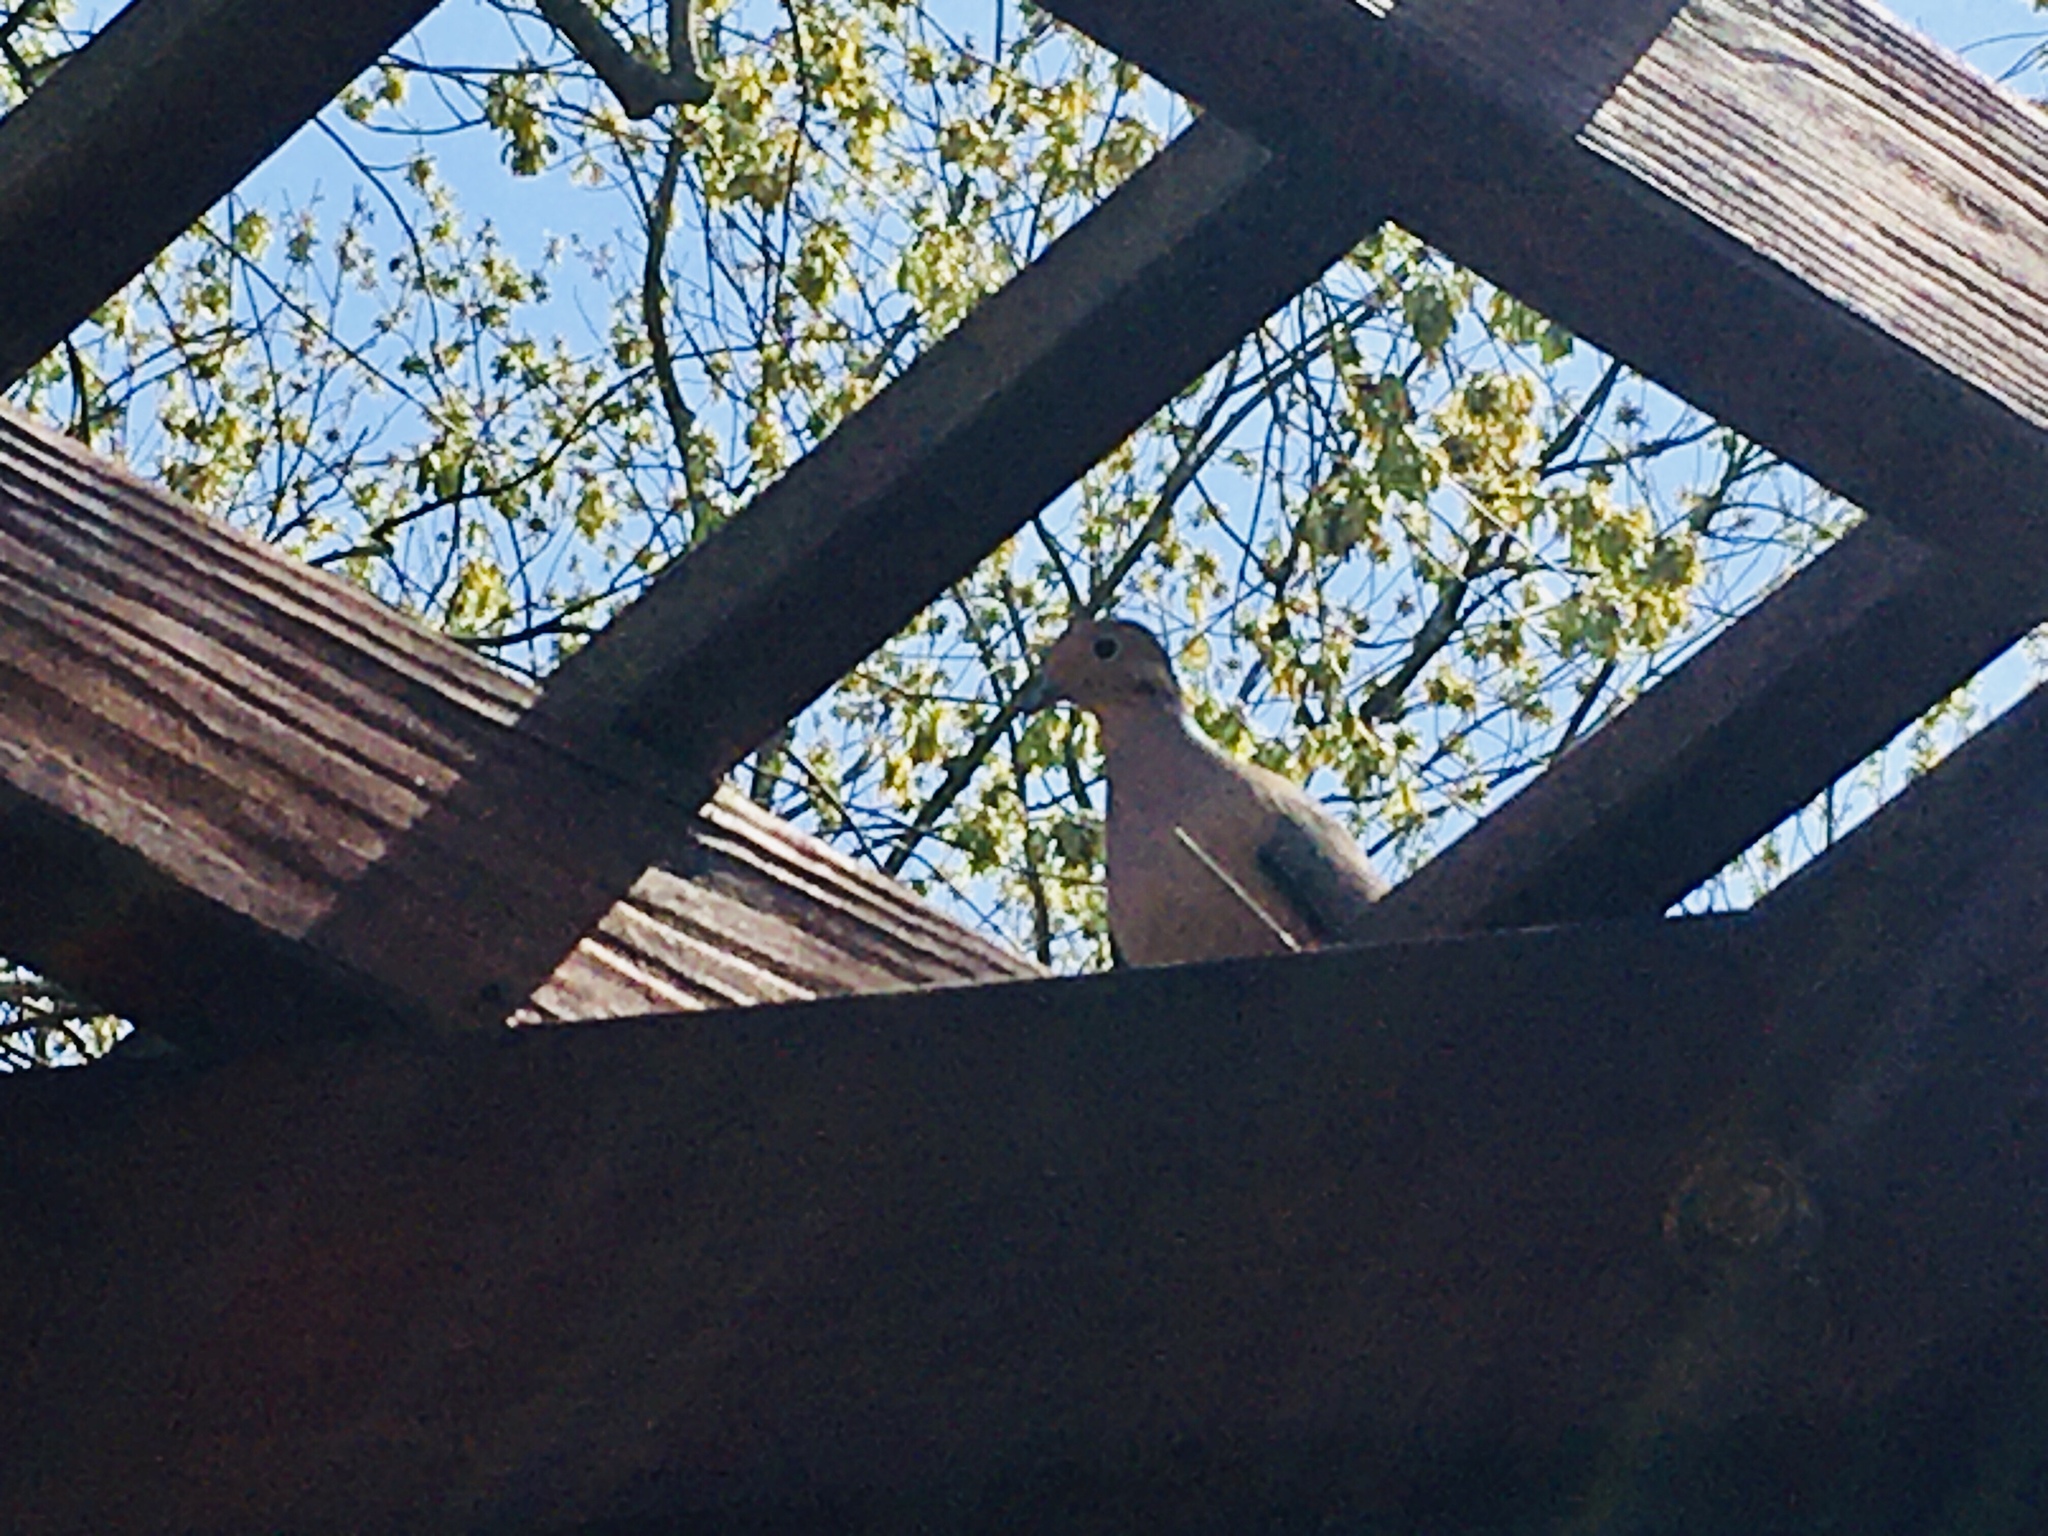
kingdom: Animalia
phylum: Chordata
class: Aves
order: Columbiformes
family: Columbidae
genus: Zenaida
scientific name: Zenaida macroura
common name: Mourning dove
